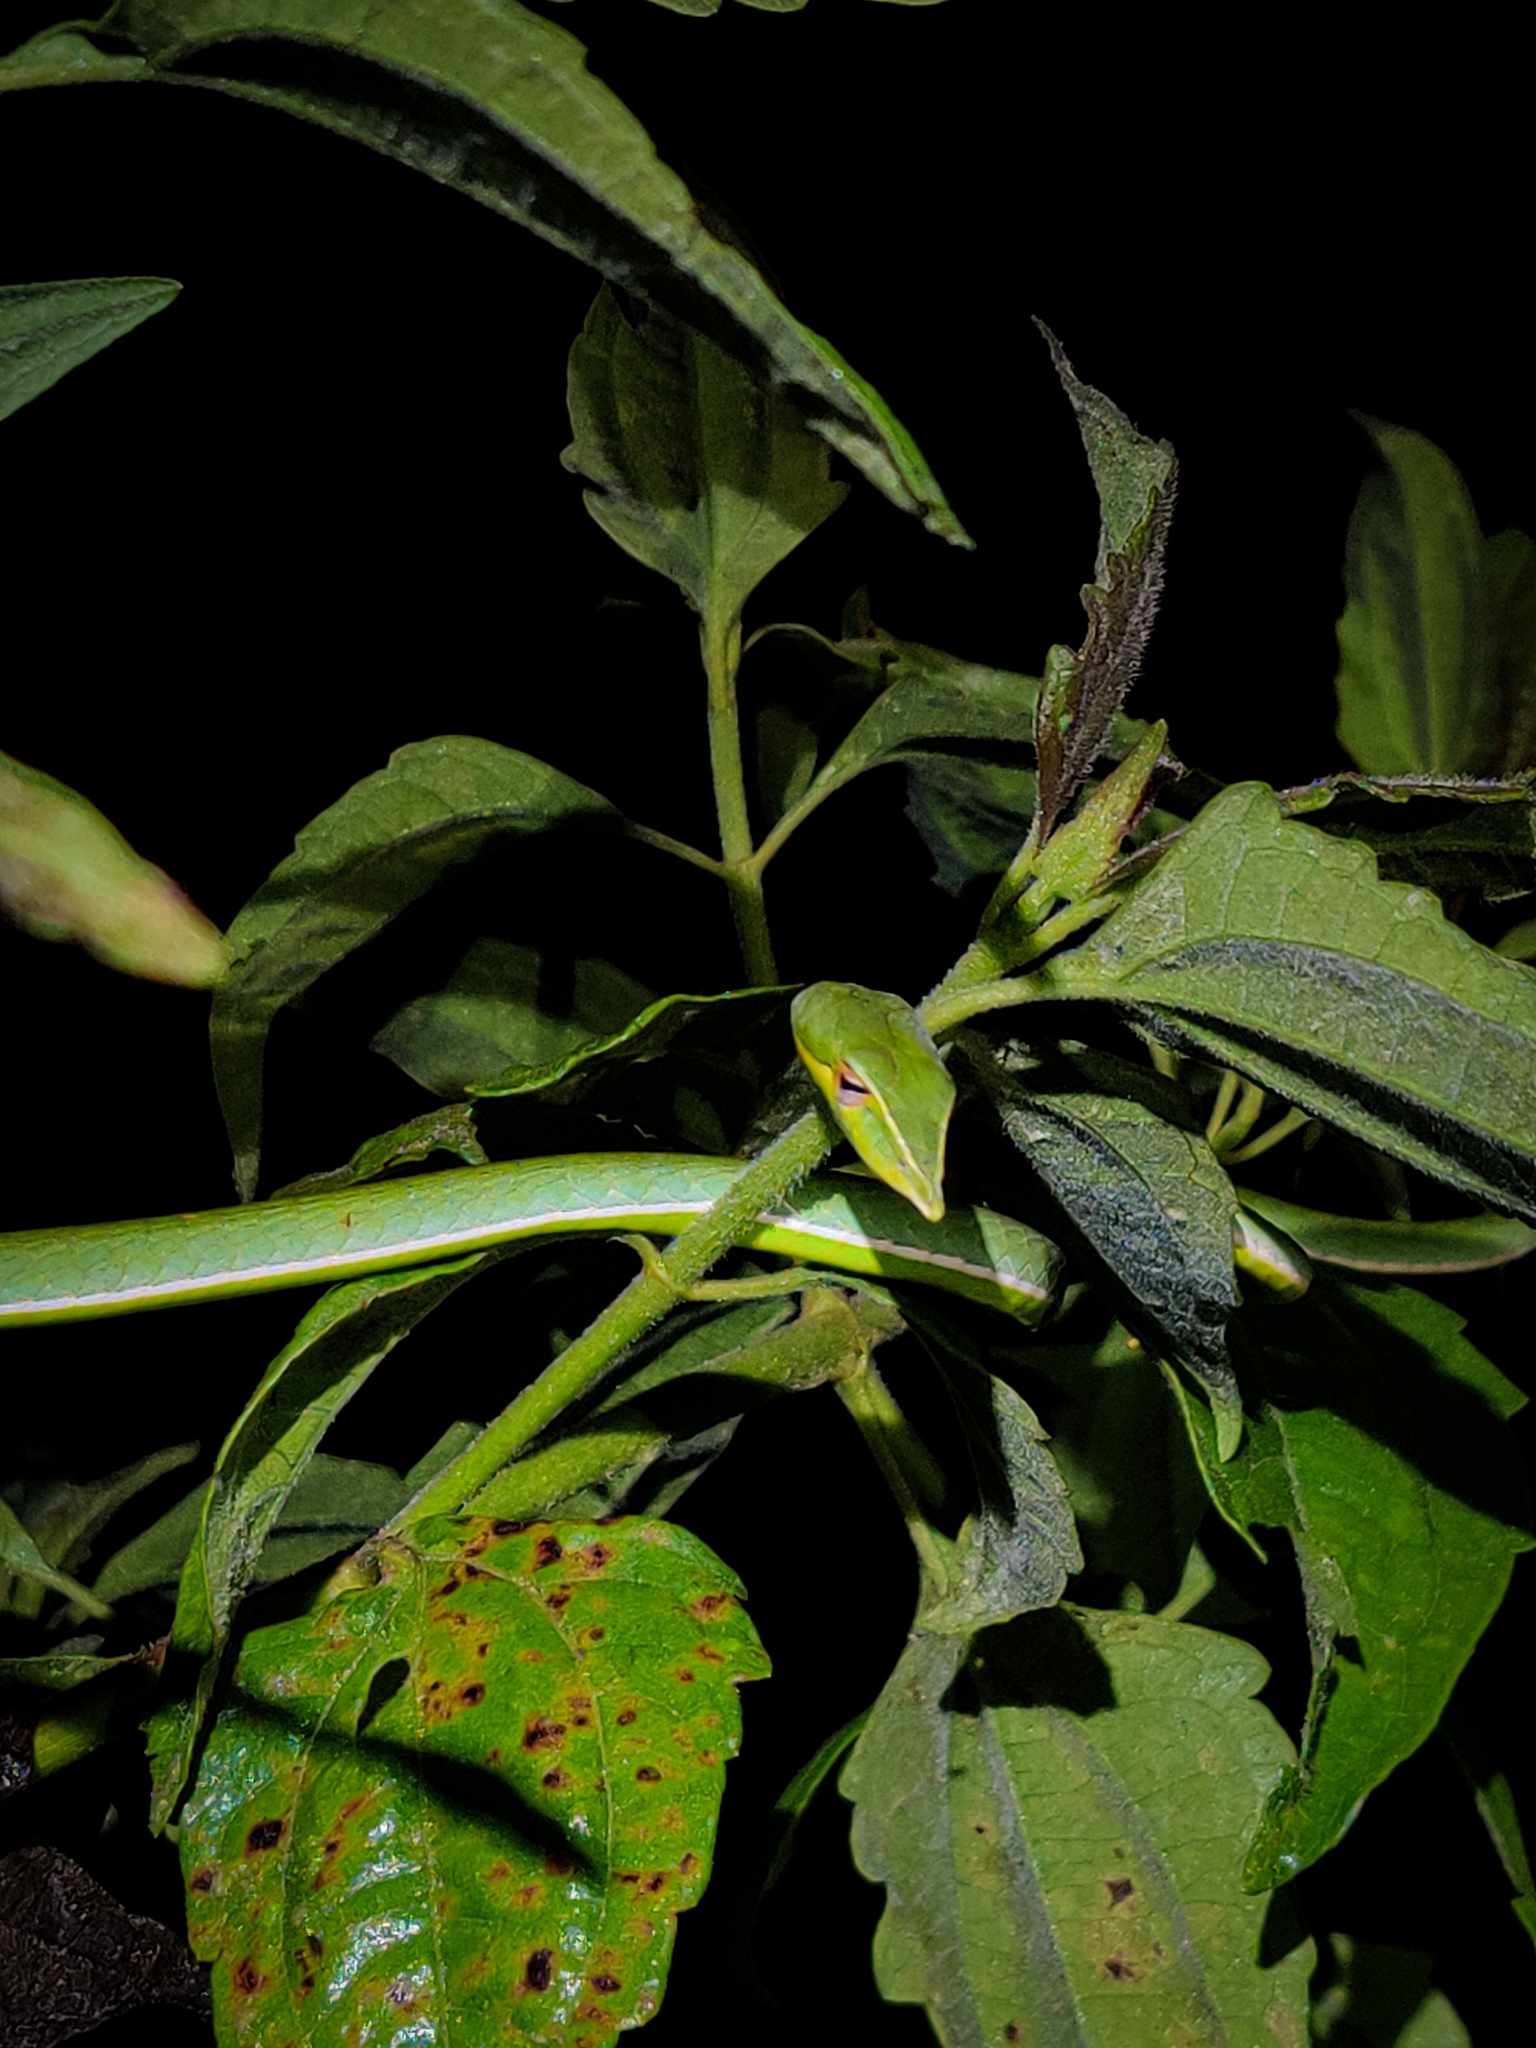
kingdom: Animalia
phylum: Chordata
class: Squamata
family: Colubridae
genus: Ahaetulla
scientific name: Ahaetulla oxyrhyncha
